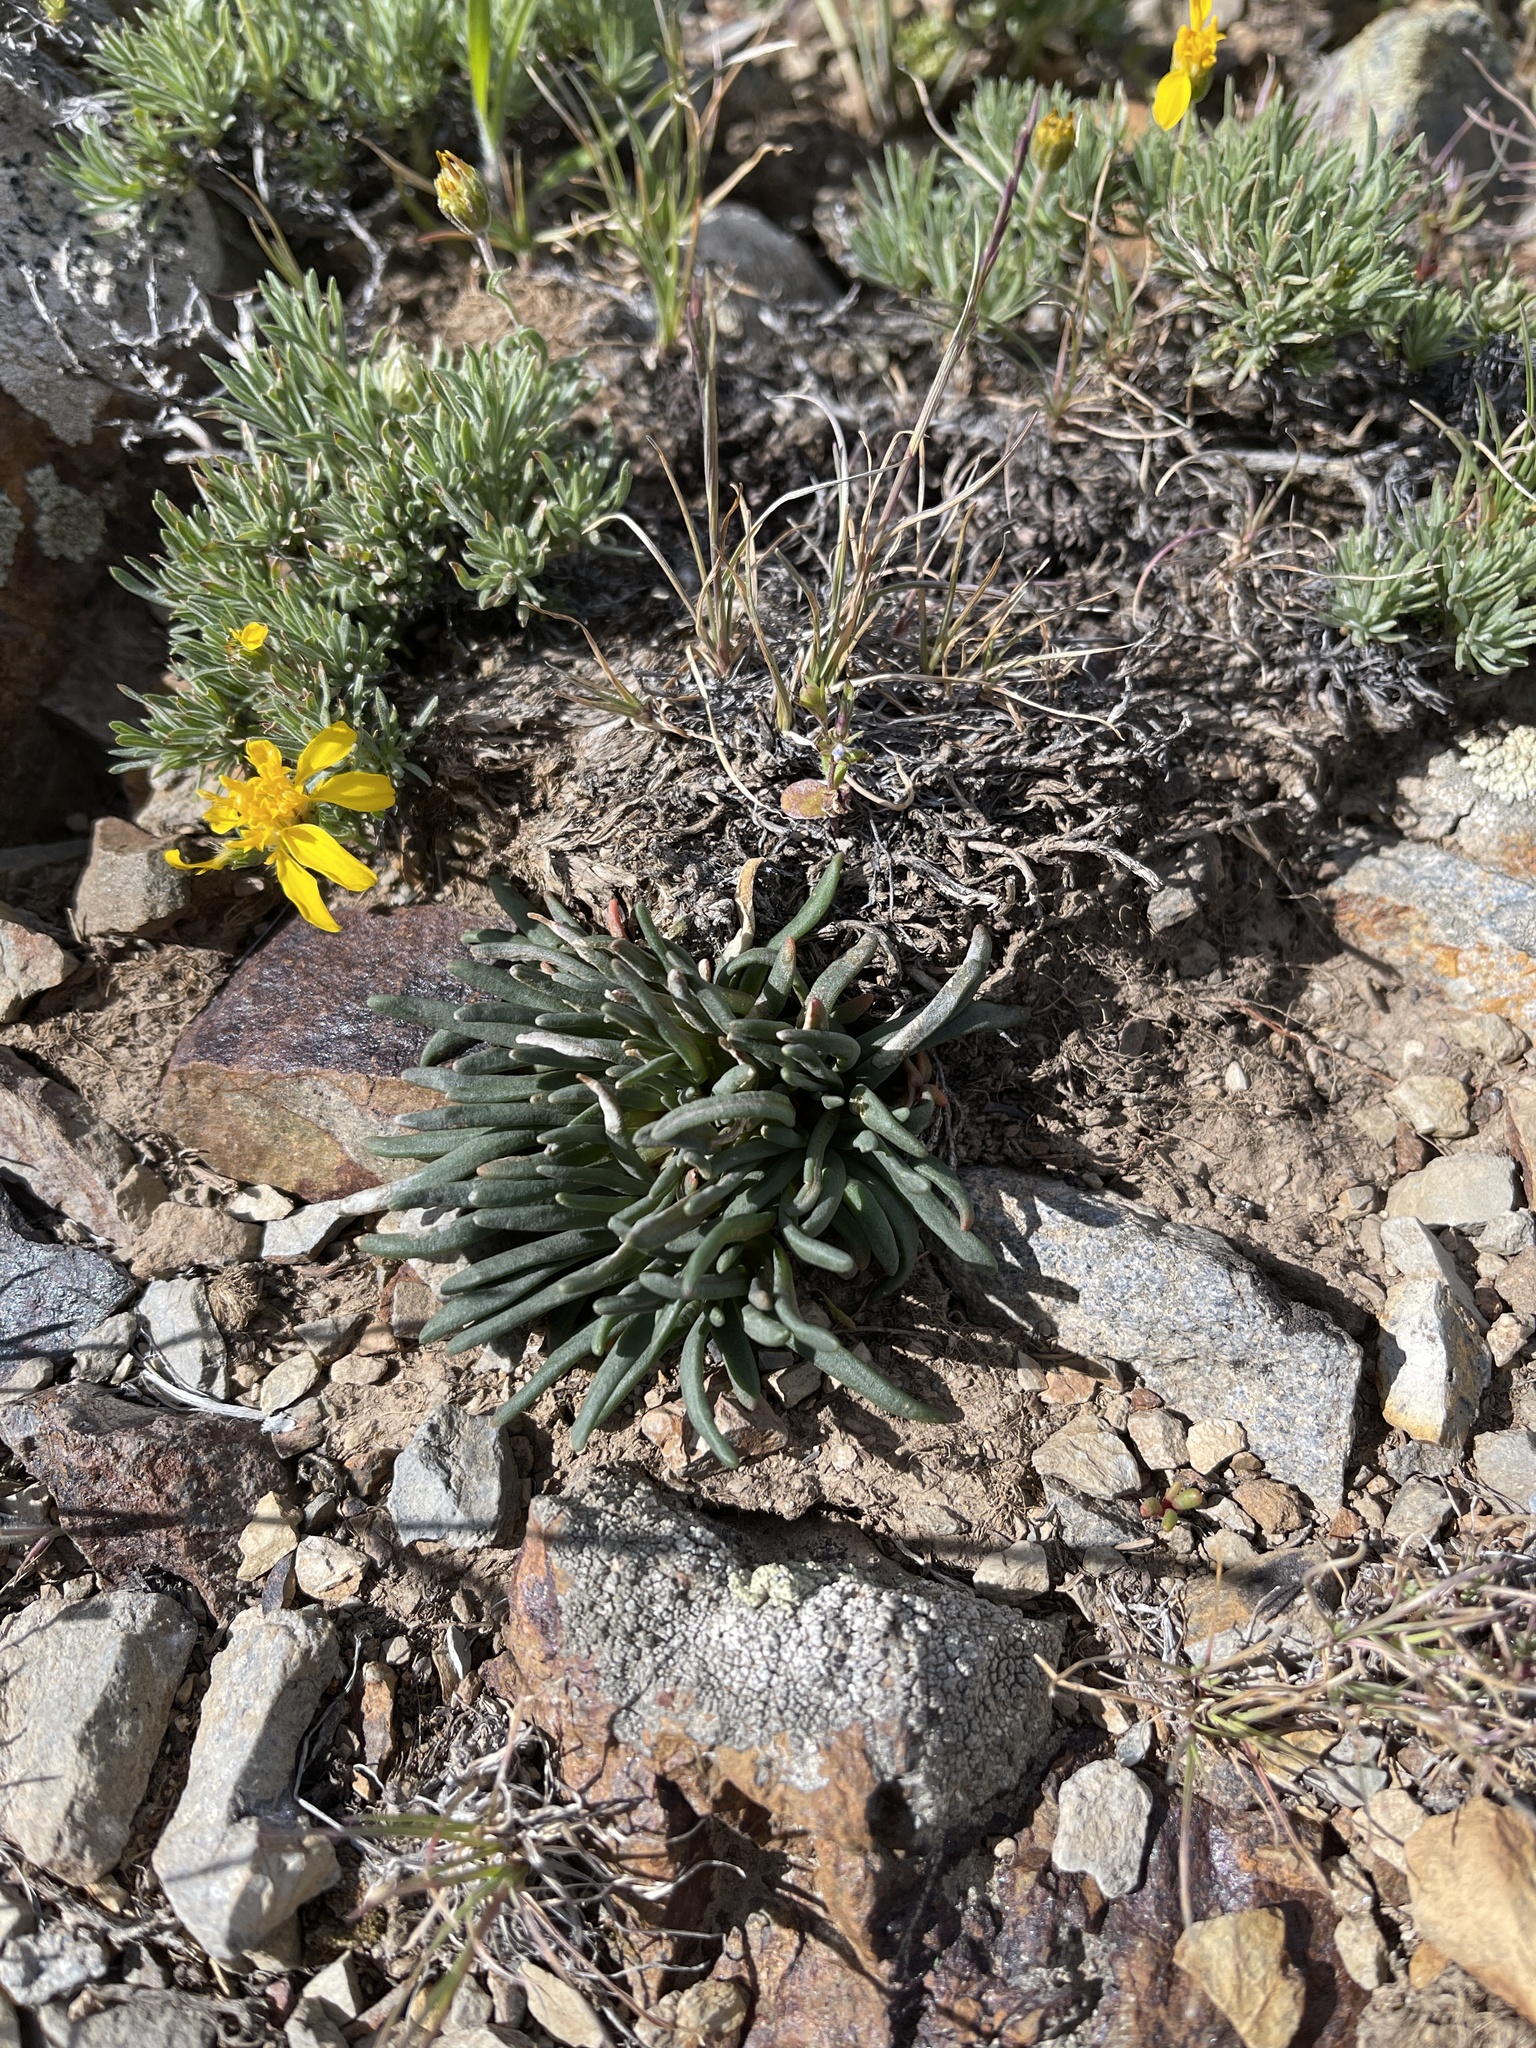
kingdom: Plantae
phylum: Tracheophyta
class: Magnoliopsida
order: Caryophyllales
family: Montiaceae
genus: Lewisia
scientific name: Lewisia rediviva
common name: Bitter-root
